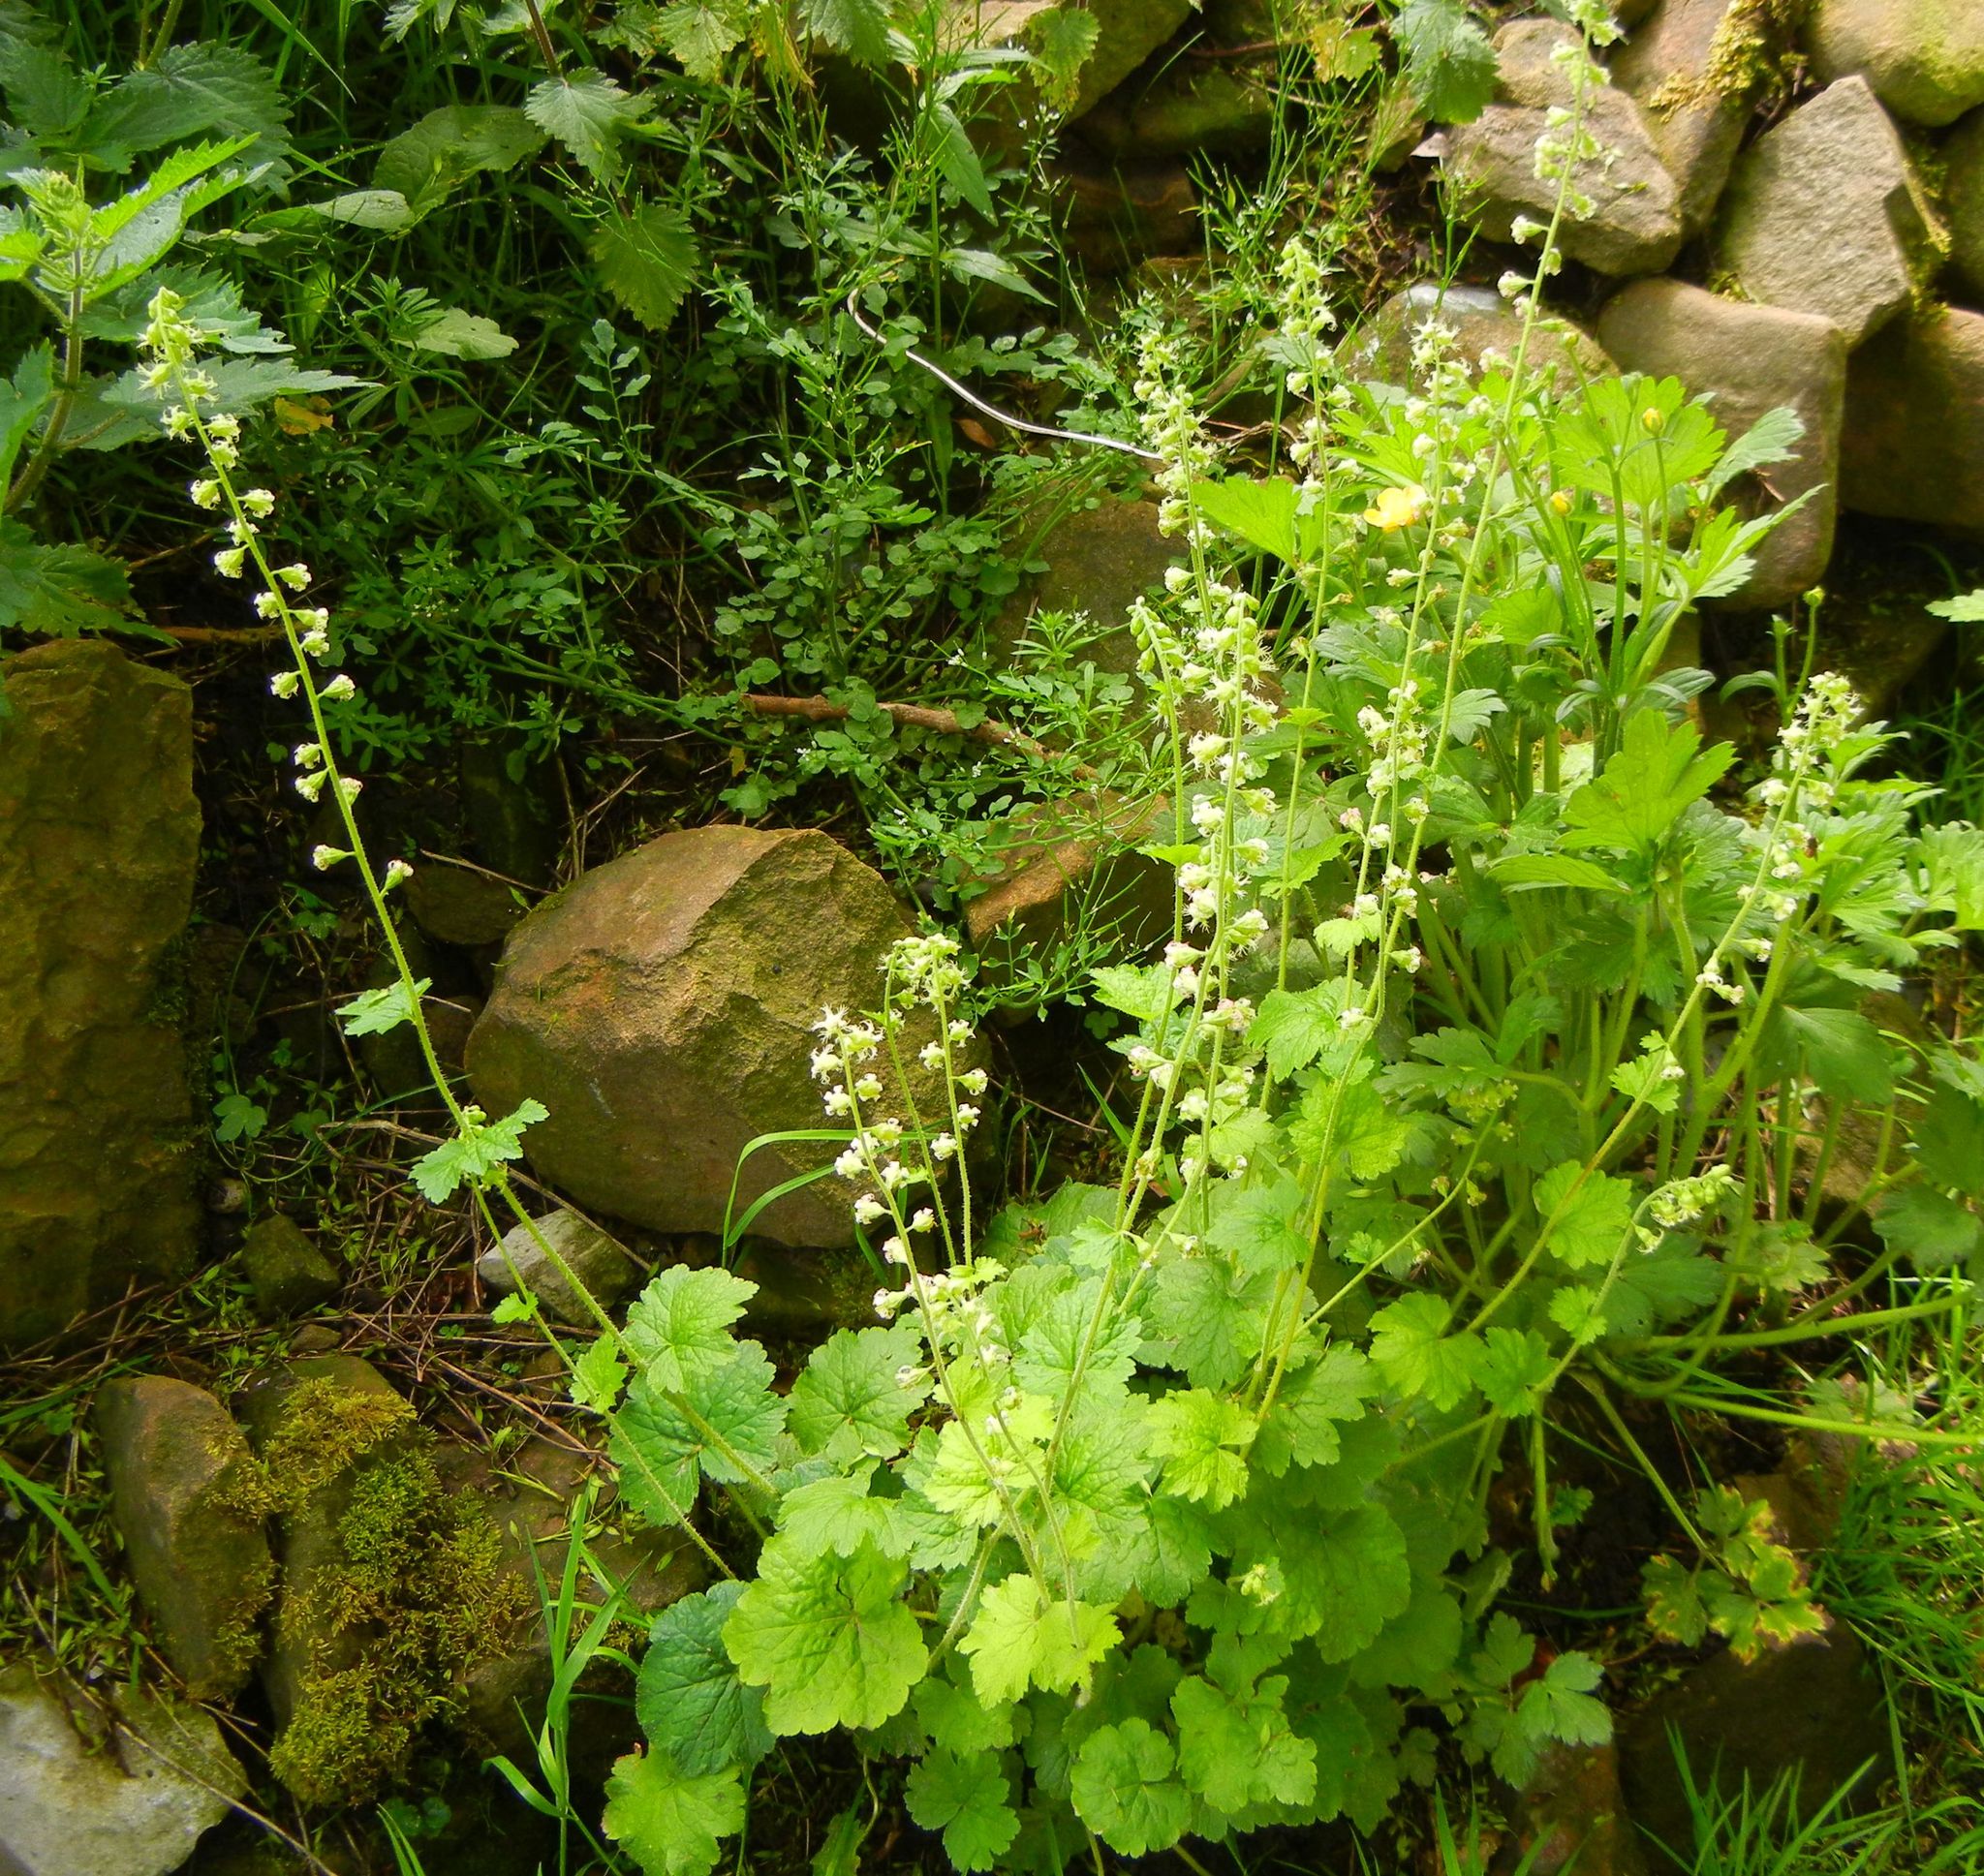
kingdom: Plantae
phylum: Tracheophyta
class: Magnoliopsida
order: Saxifragales
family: Saxifragaceae
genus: Tellima
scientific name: Tellima grandiflora
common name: Fringecups
